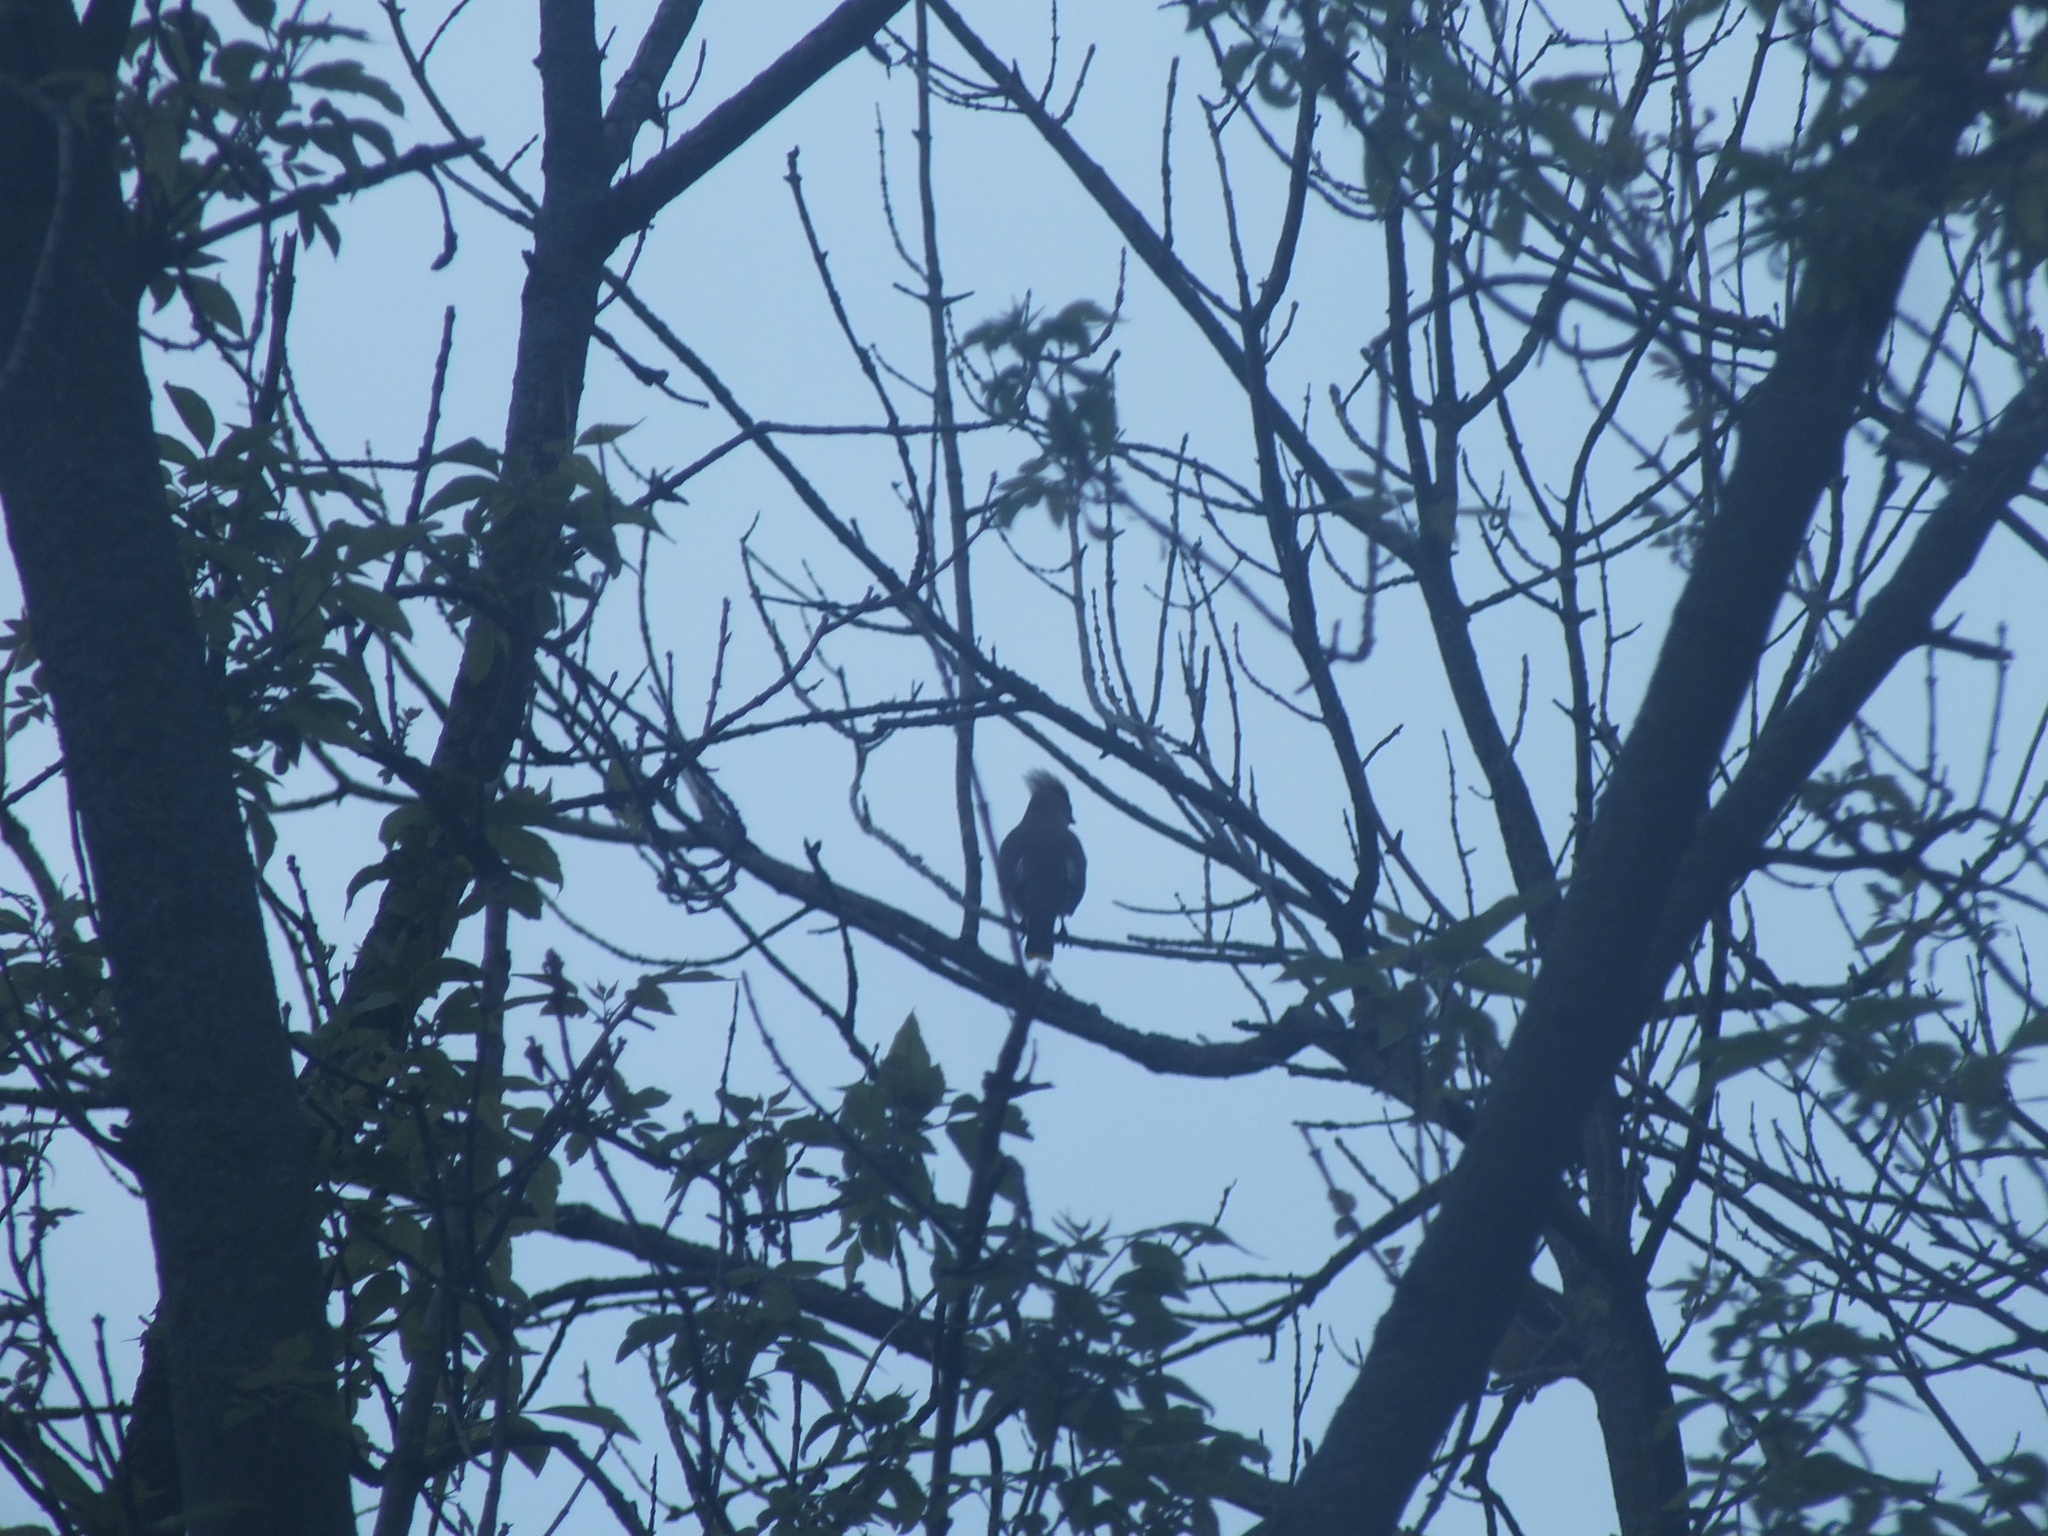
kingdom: Animalia
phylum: Chordata
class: Aves
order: Passeriformes
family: Bombycillidae
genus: Bombycilla
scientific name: Bombycilla cedrorum
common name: Cedar waxwing
